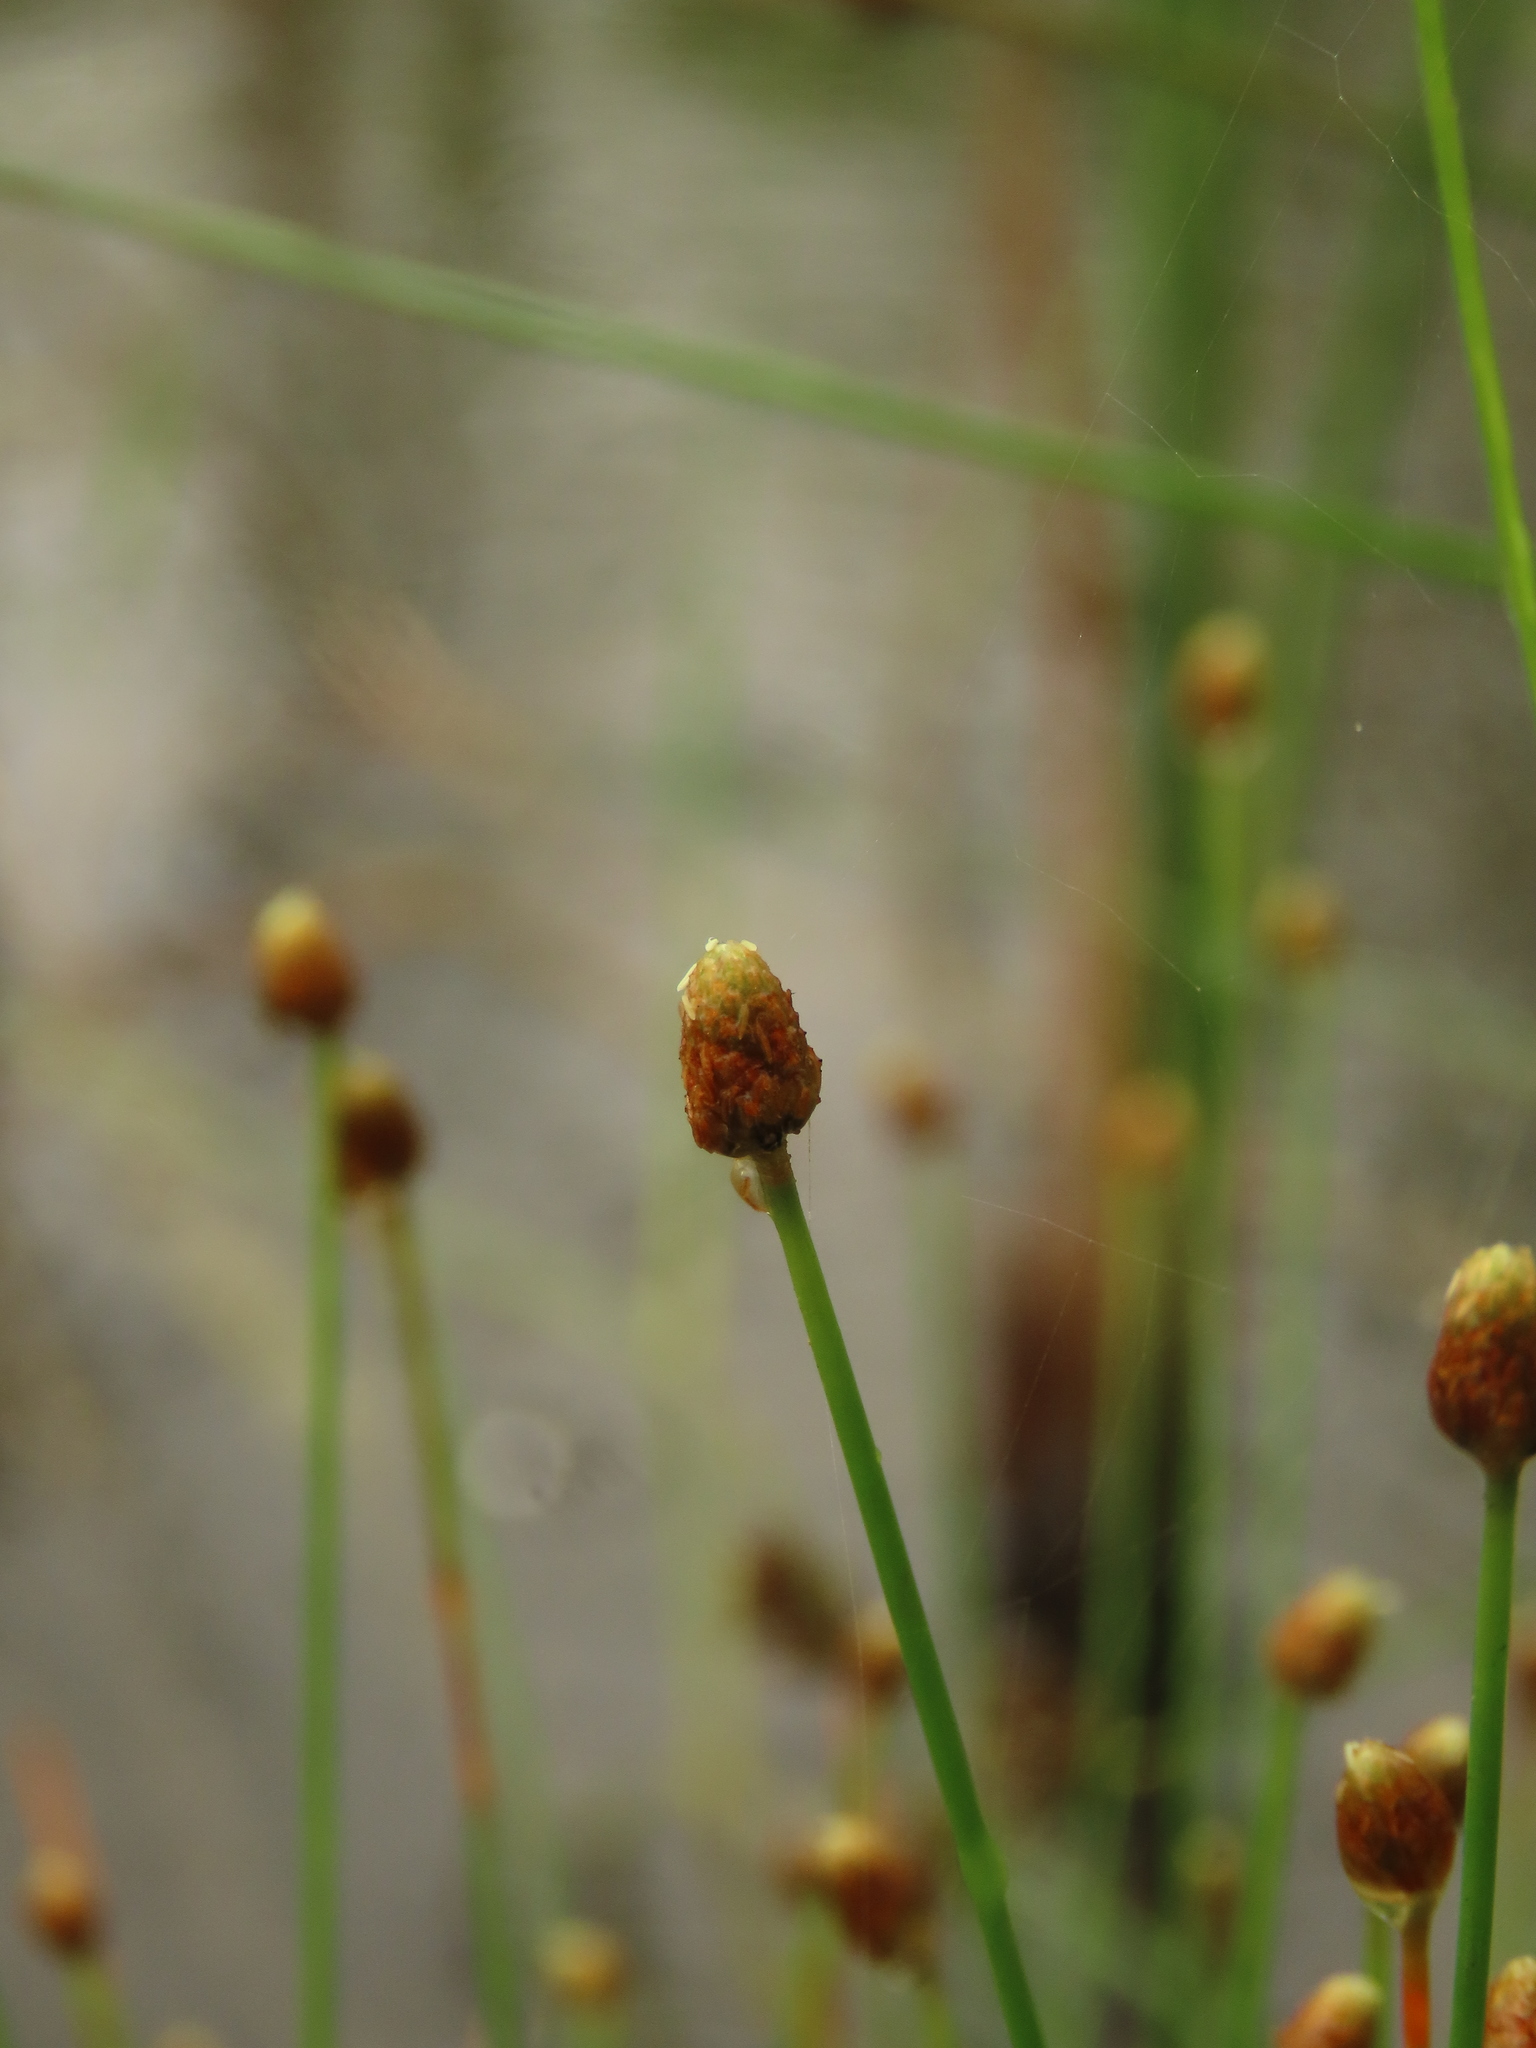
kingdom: Plantae
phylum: Tracheophyta
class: Liliopsida
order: Poales
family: Cyperaceae
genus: Eleocharis
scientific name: Eleocharis geniculata
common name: Canada spikesedge
